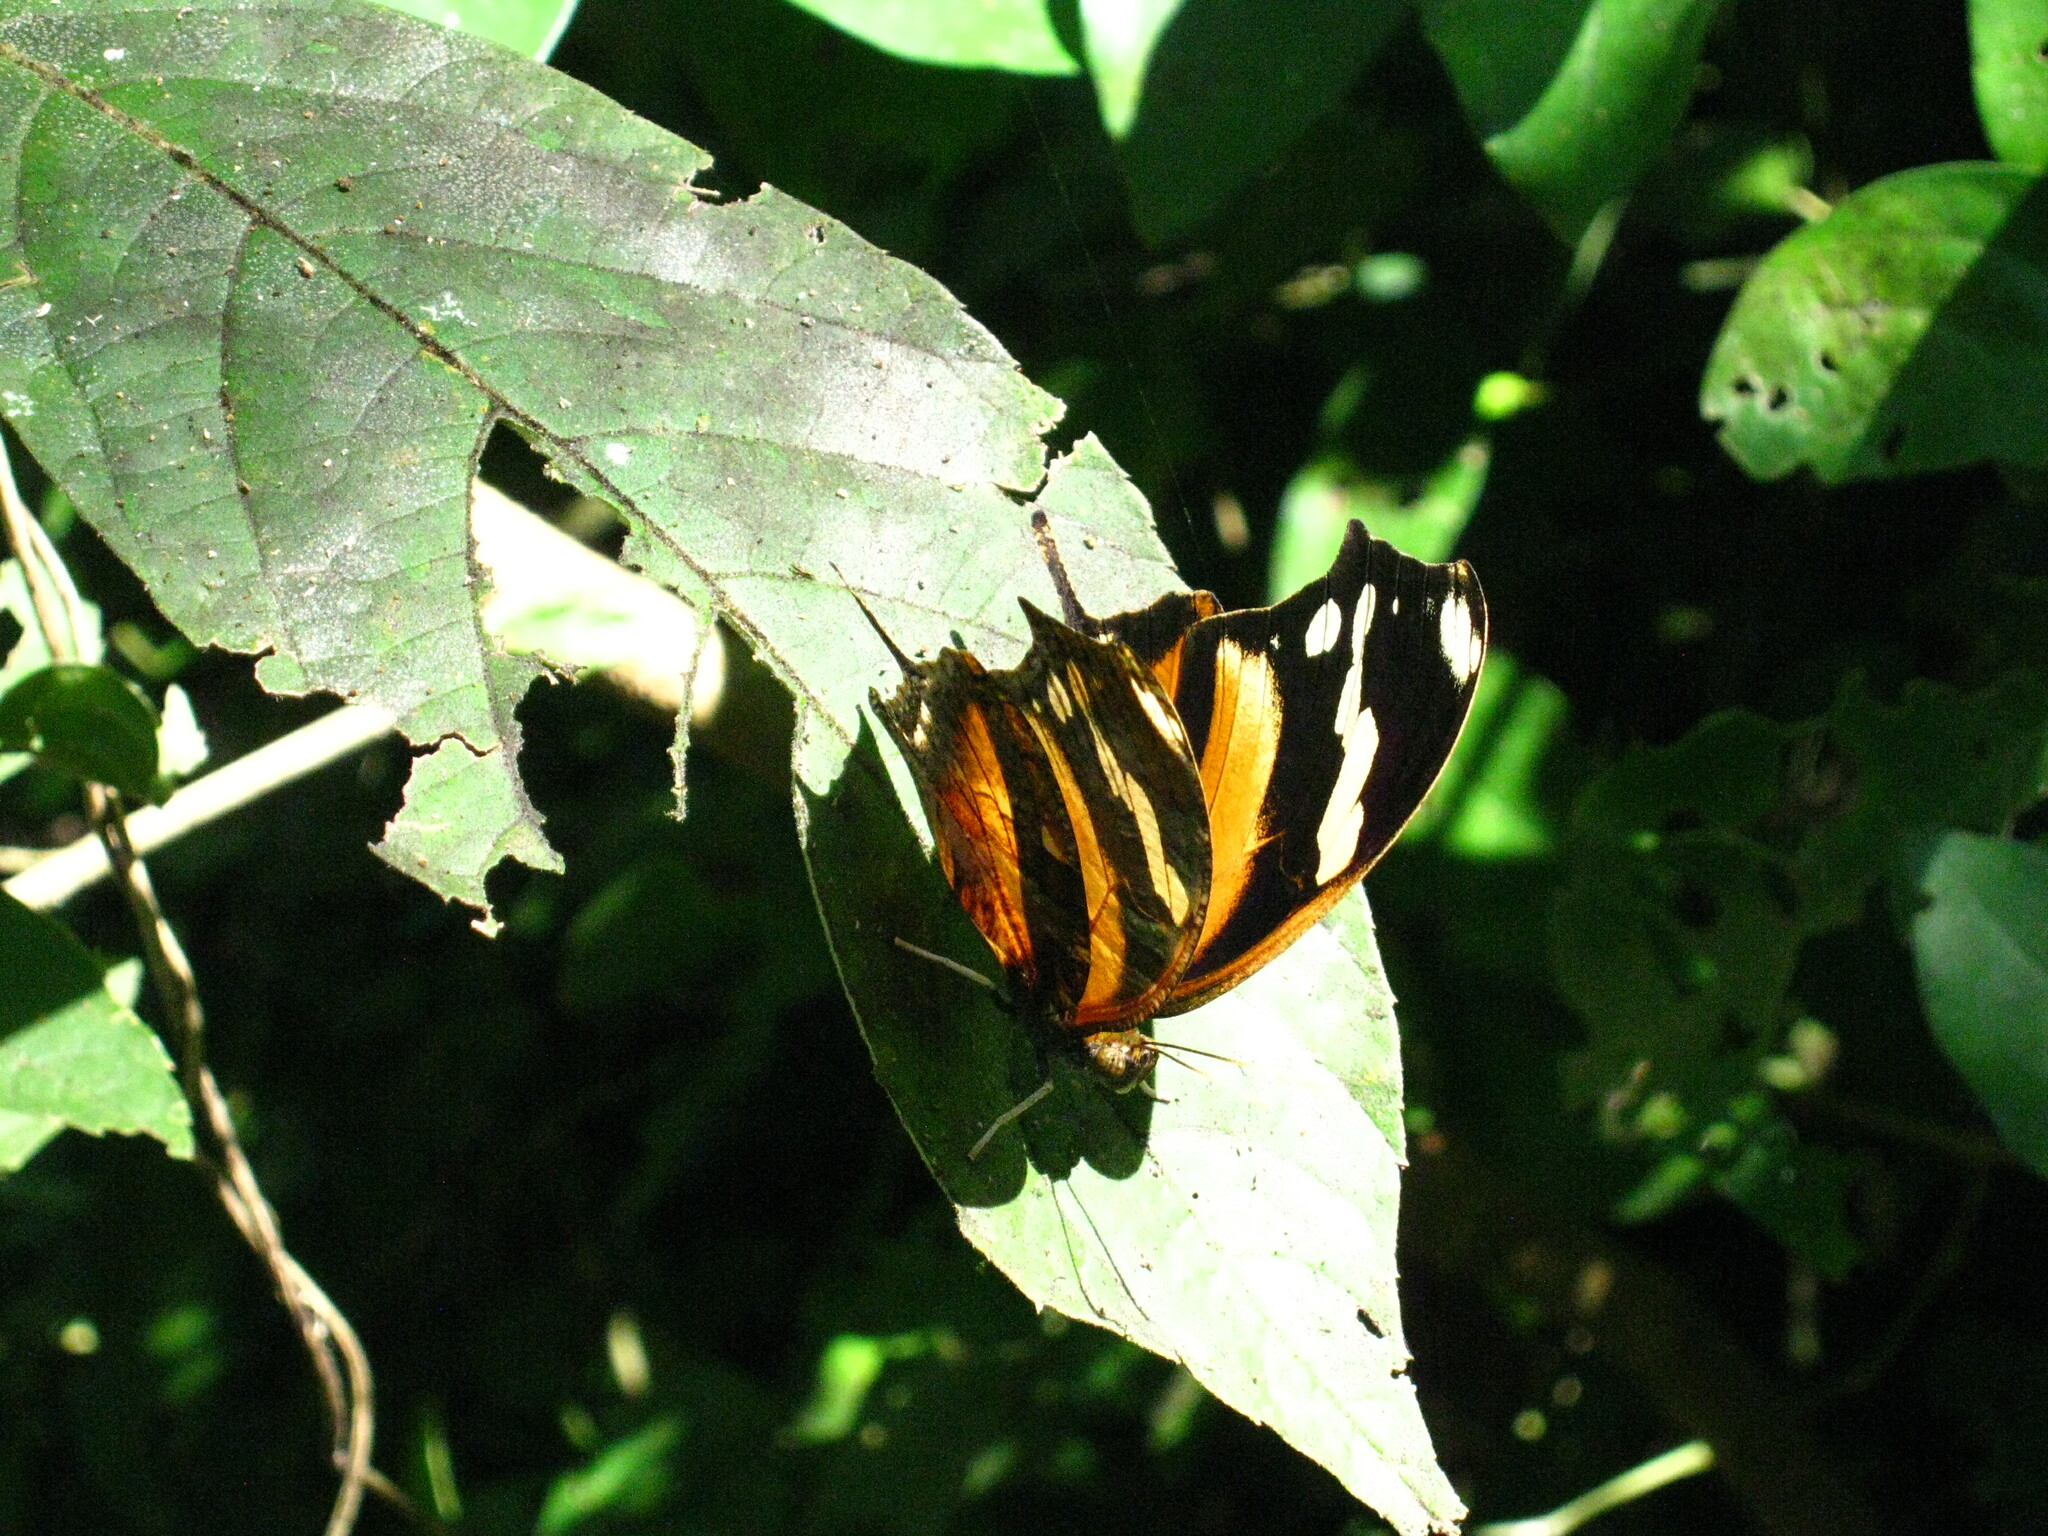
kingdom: Animalia
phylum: Arthropoda
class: Insecta
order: Lepidoptera
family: Nymphalidae
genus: Consul
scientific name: Consul fabius
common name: Tiger leafwing
